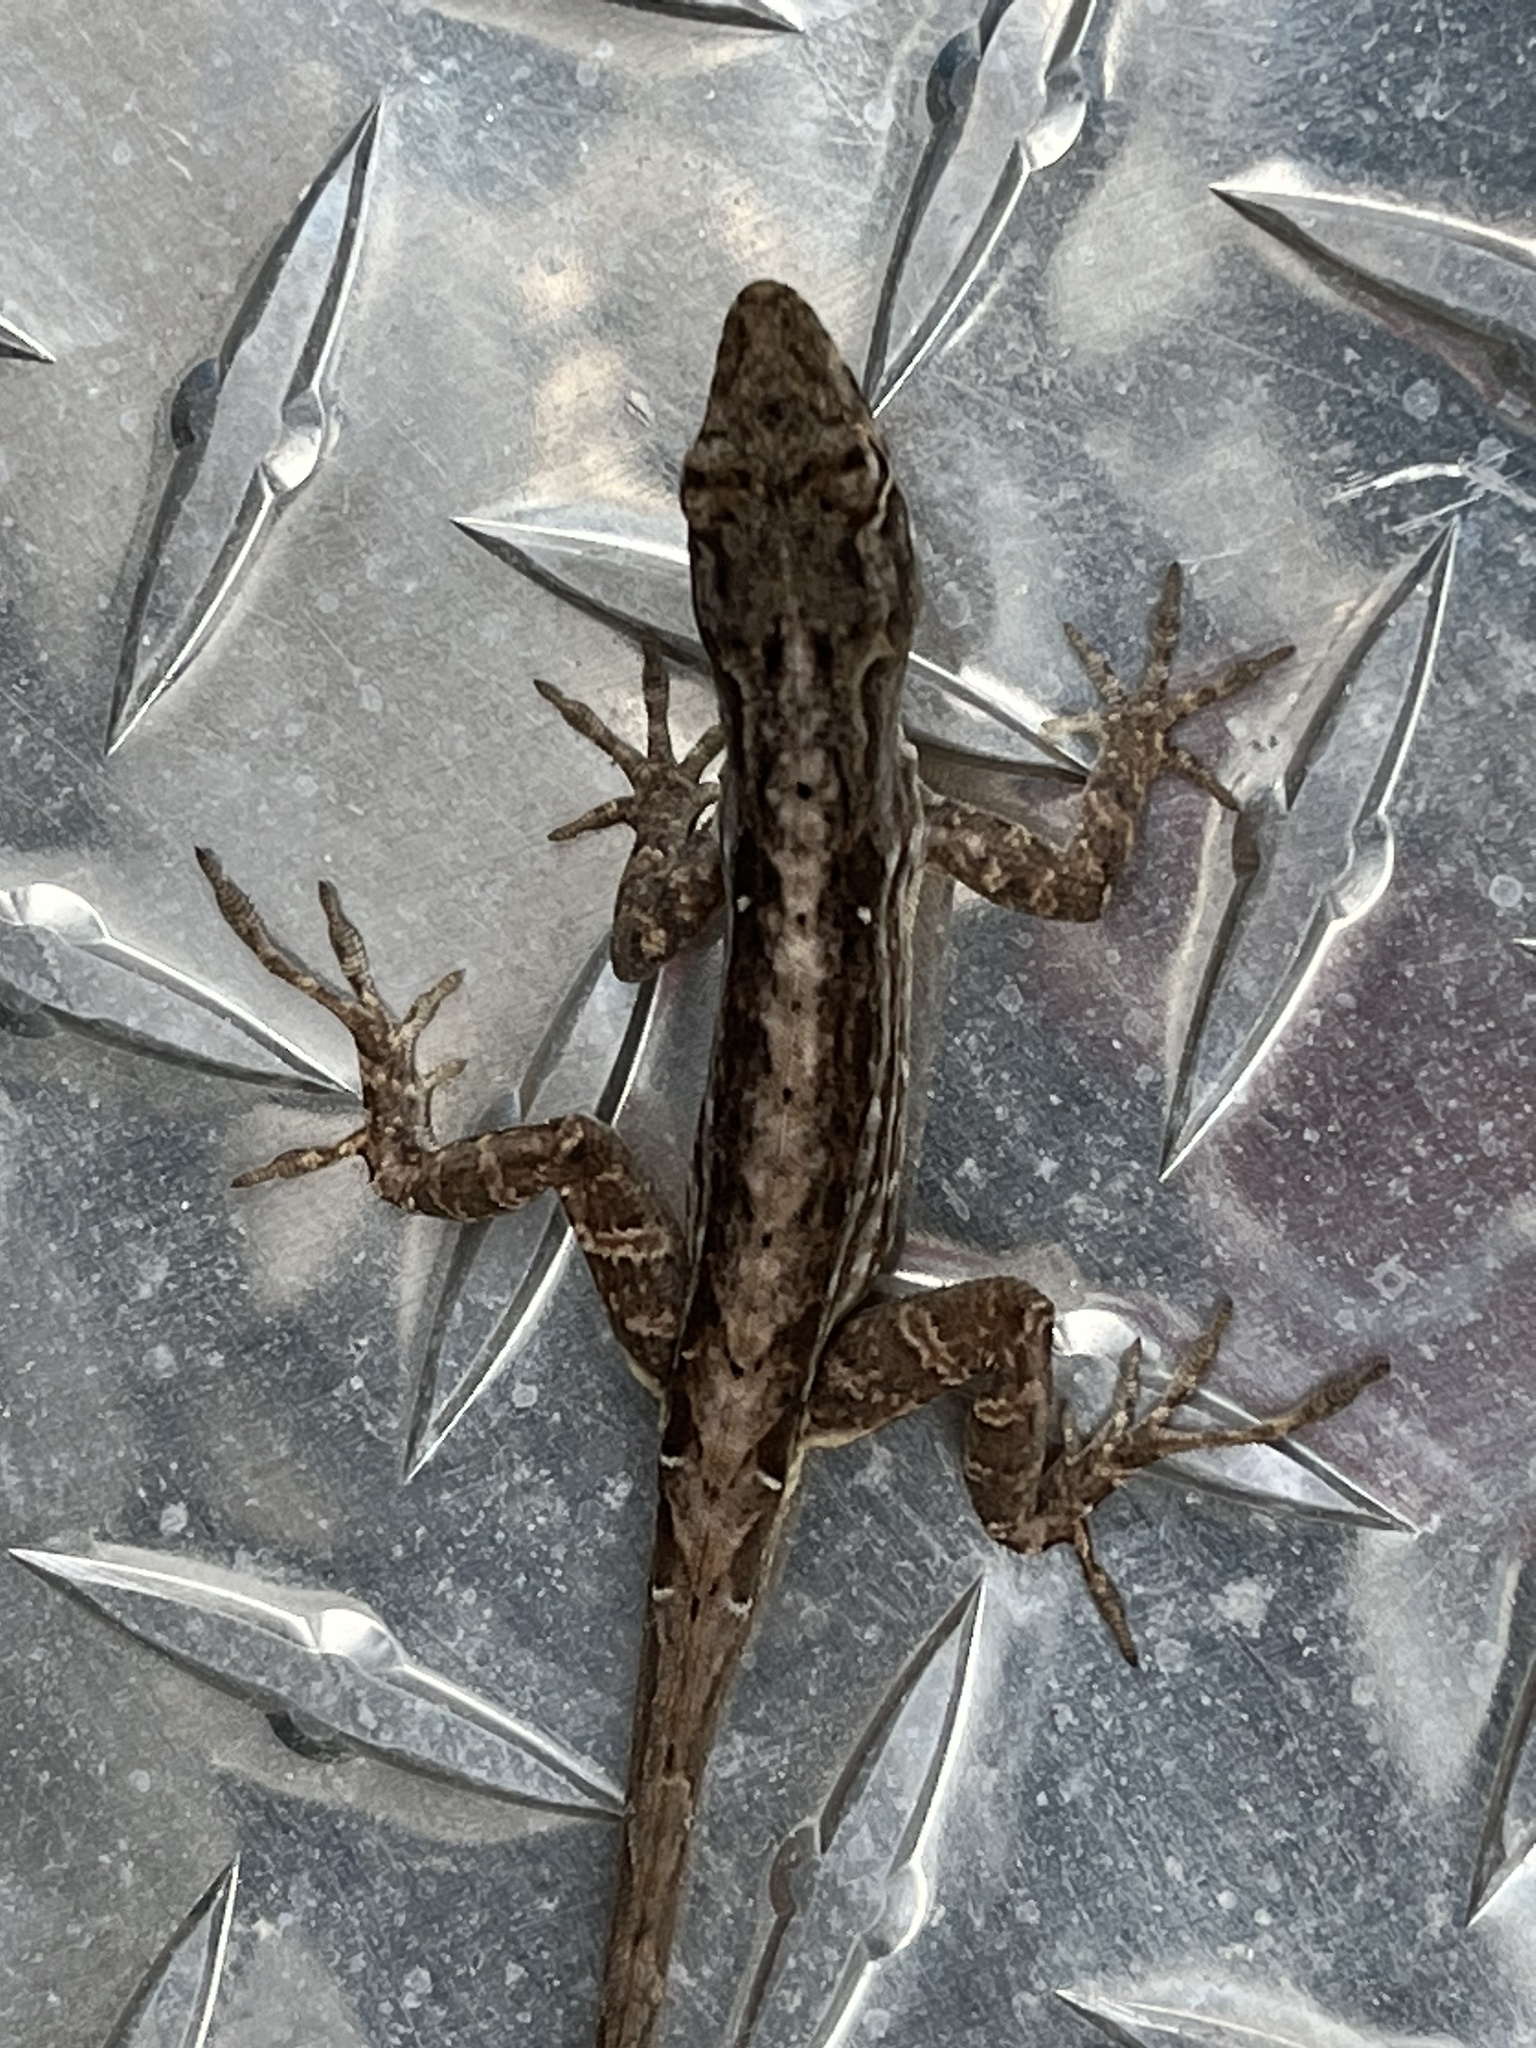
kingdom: Animalia
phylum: Chordata
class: Squamata
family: Dactyloidae
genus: Anolis
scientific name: Anolis sagrei
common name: Brown anole
